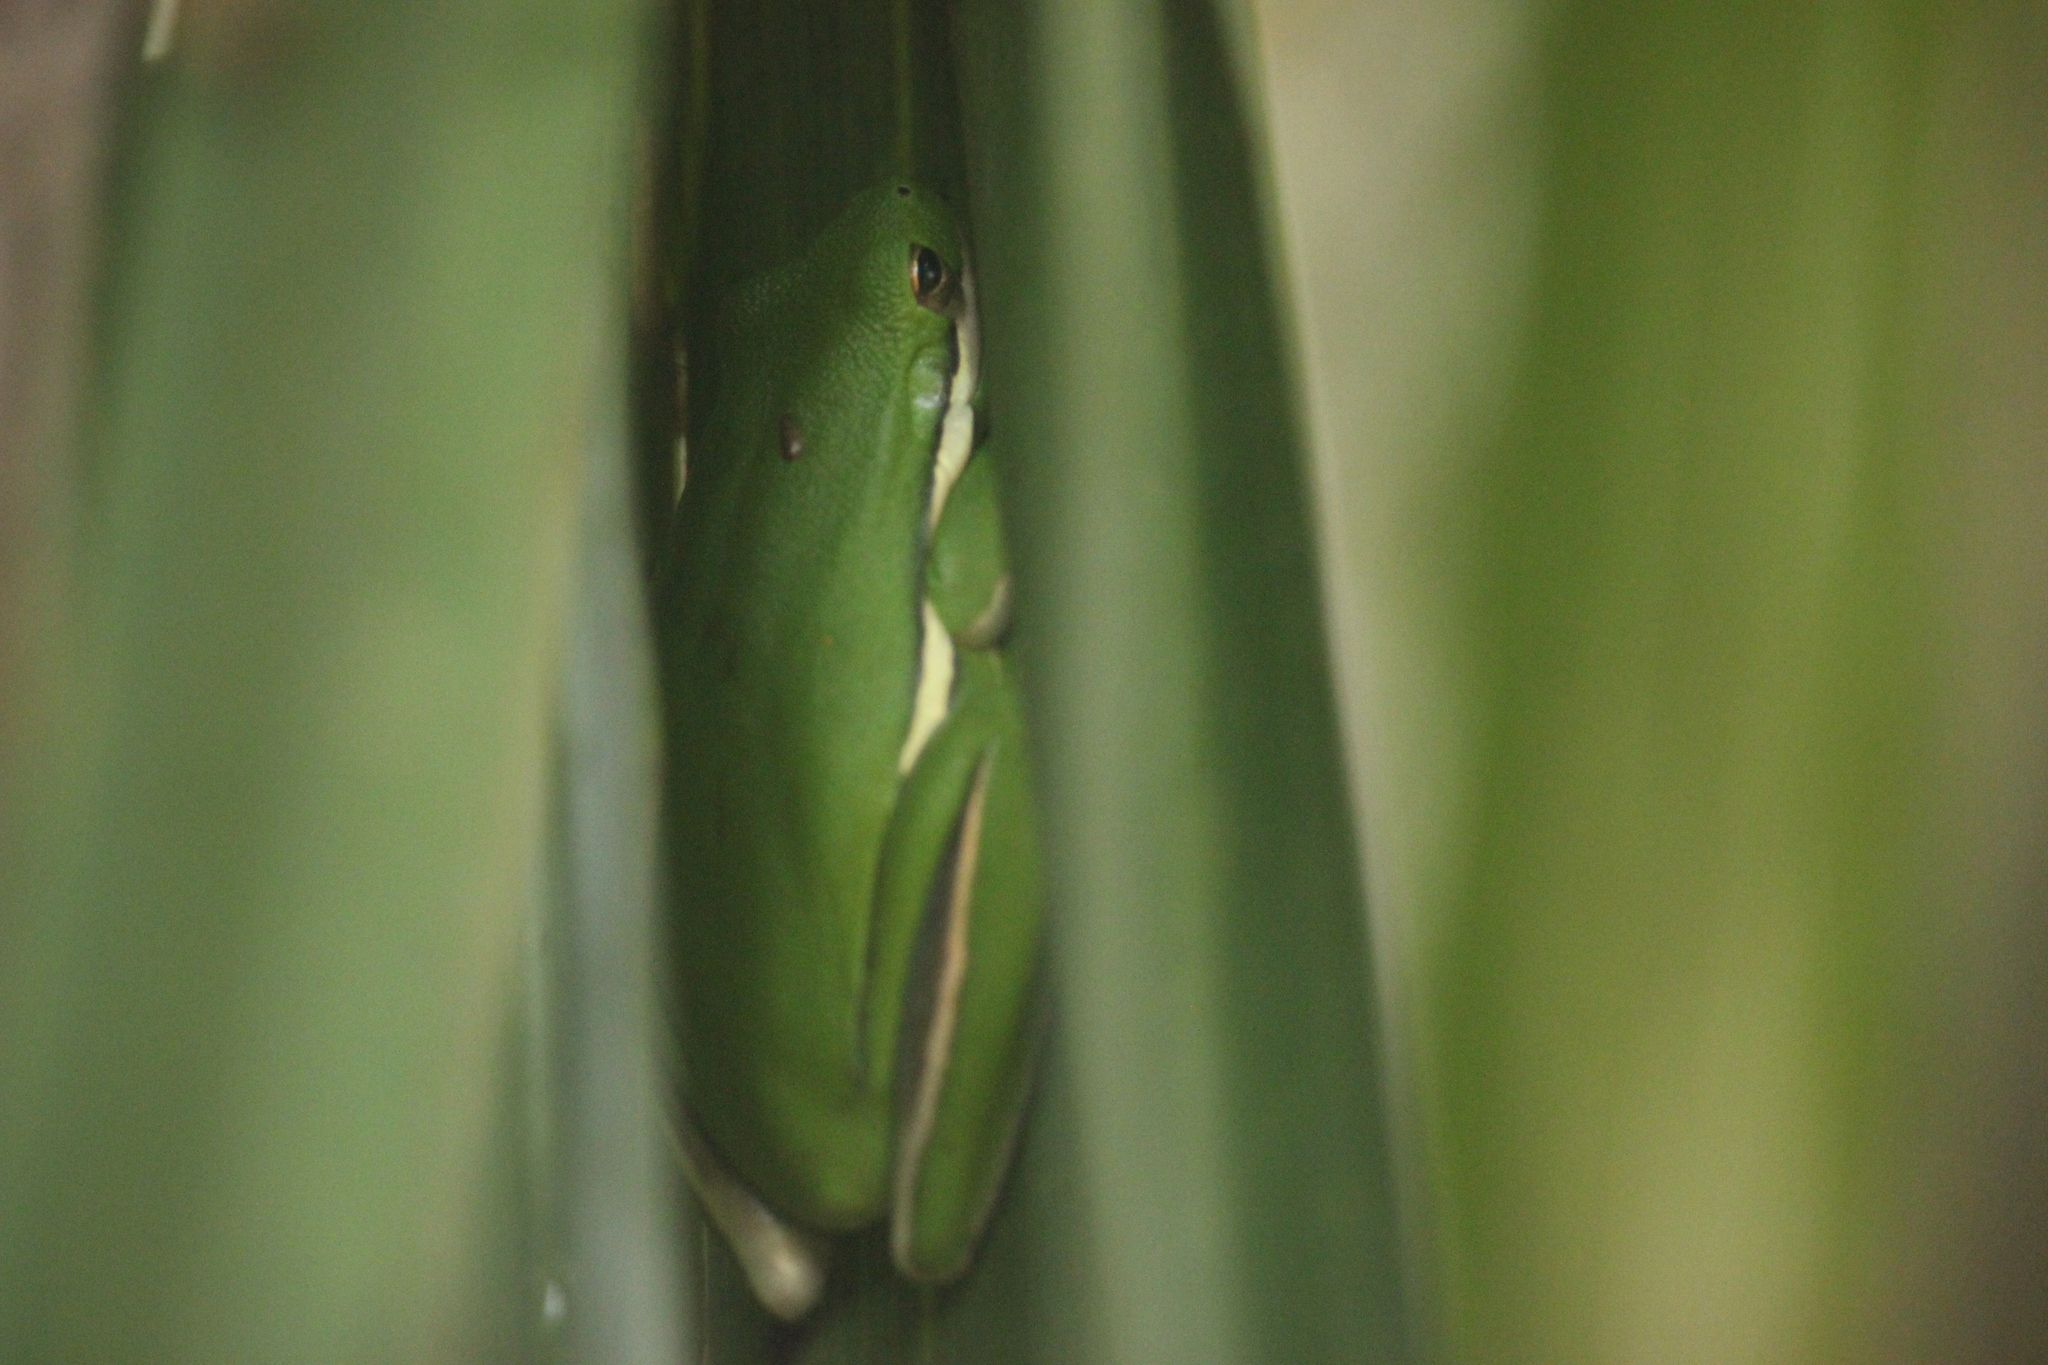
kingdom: Animalia
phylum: Chordata
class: Amphibia
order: Anura
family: Hylidae
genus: Dryophytes
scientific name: Dryophytes cinereus
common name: Green treefrog
